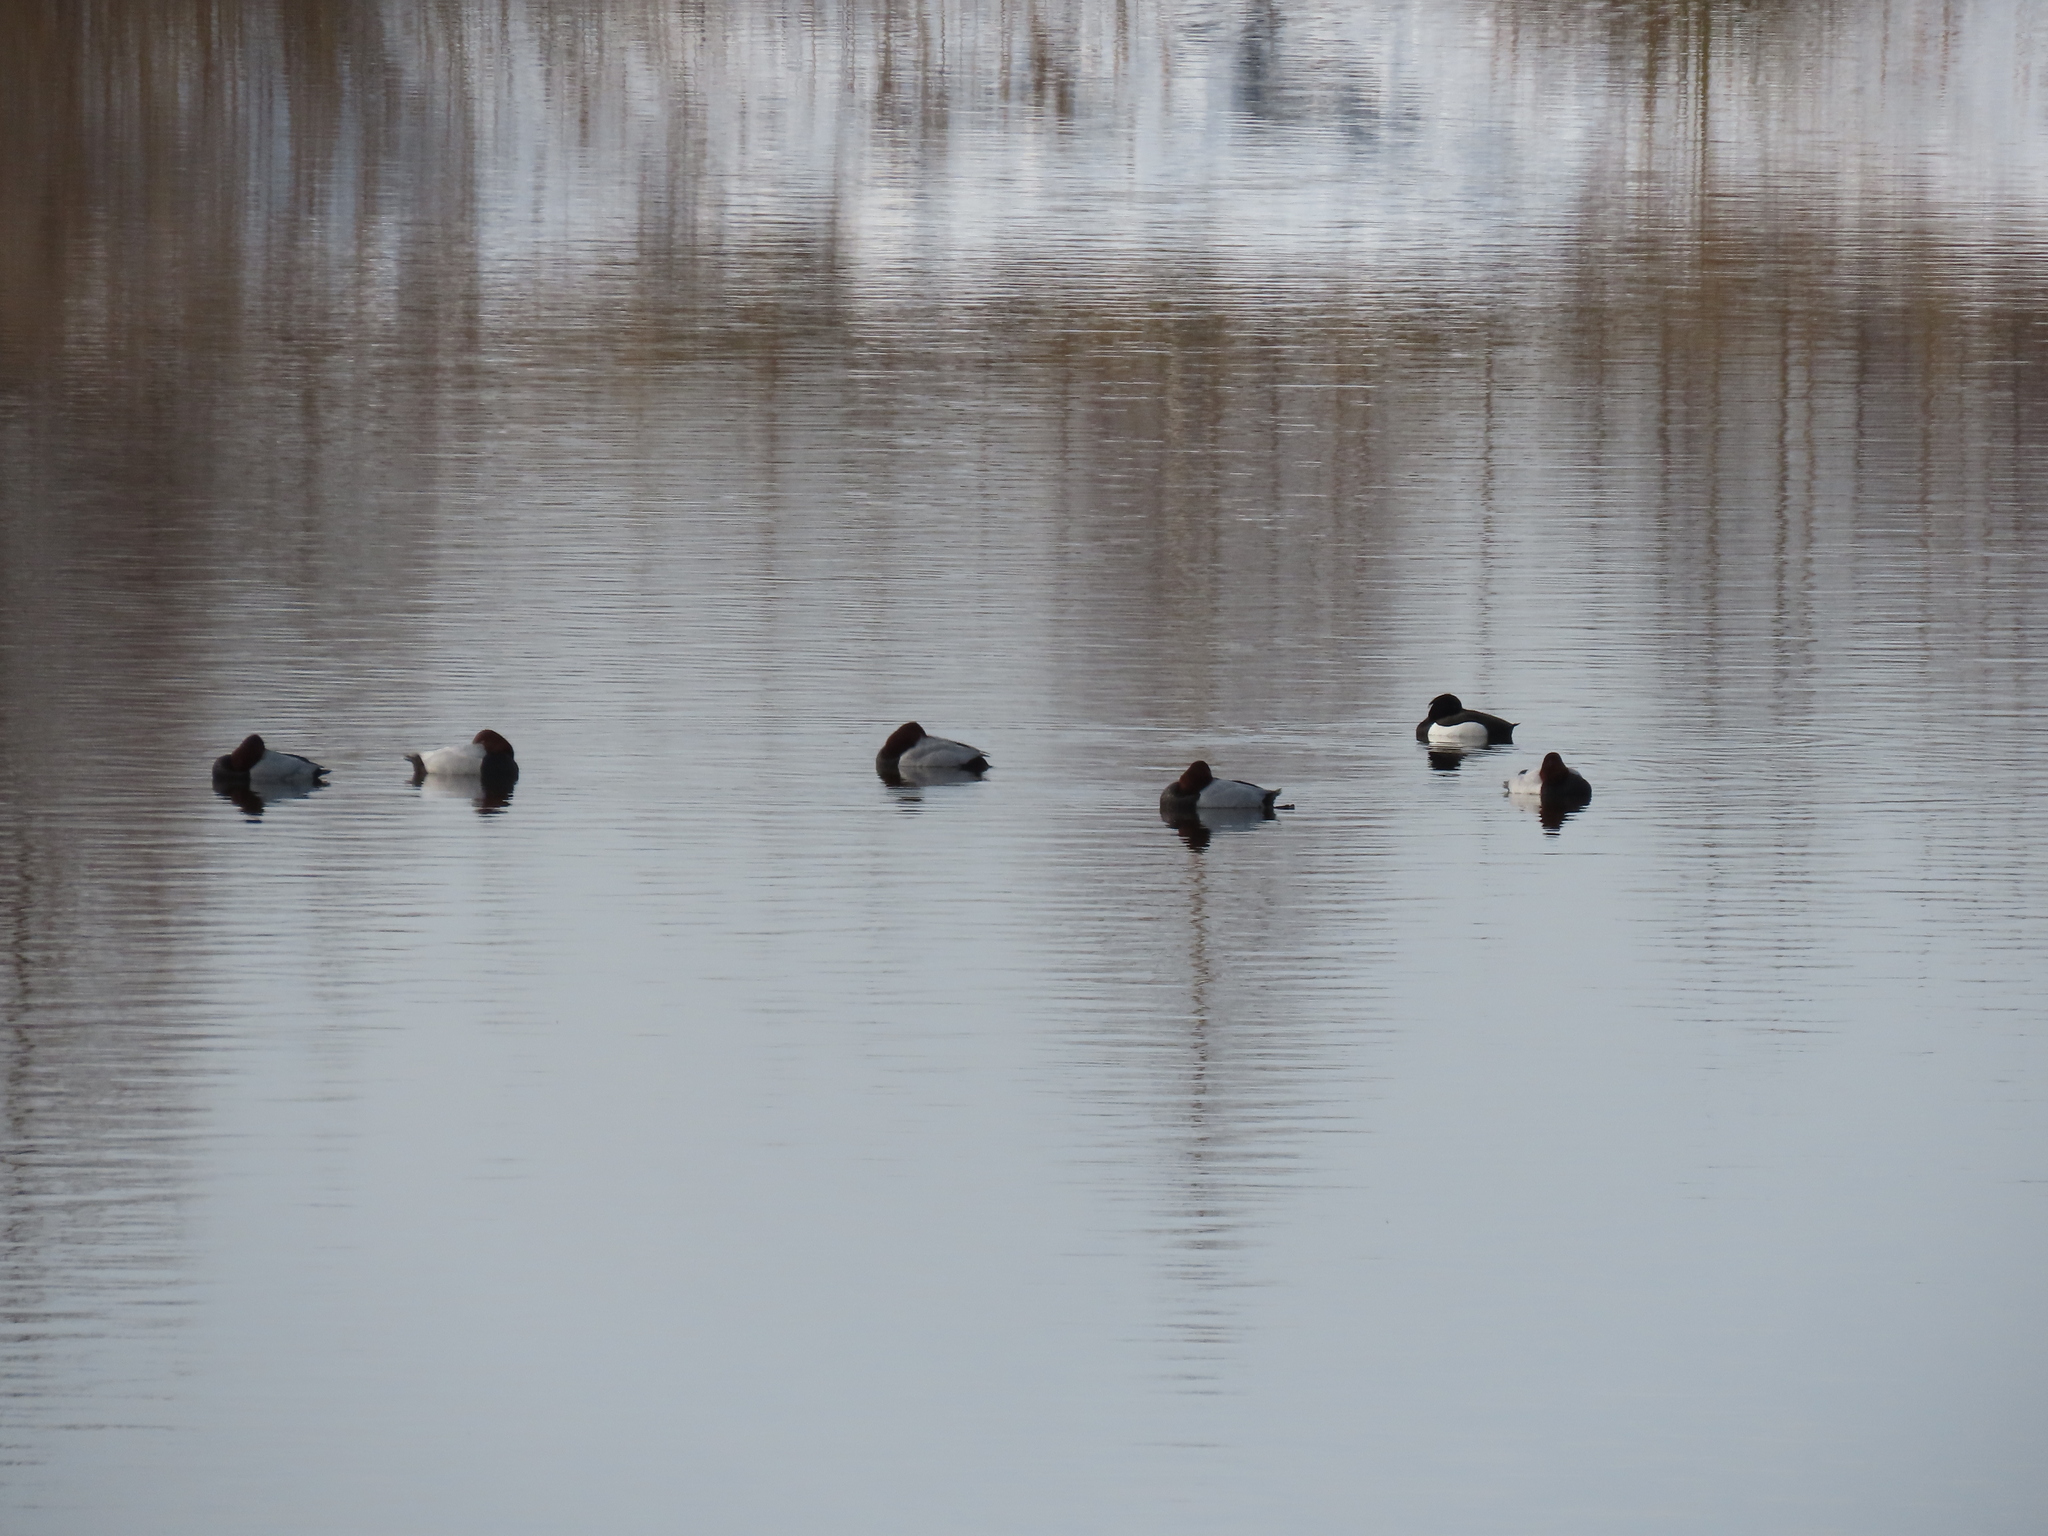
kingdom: Animalia
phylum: Chordata
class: Aves
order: Anseriformes
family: Anatidae
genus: Aythya
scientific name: Aythya ferina
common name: Common pochard
